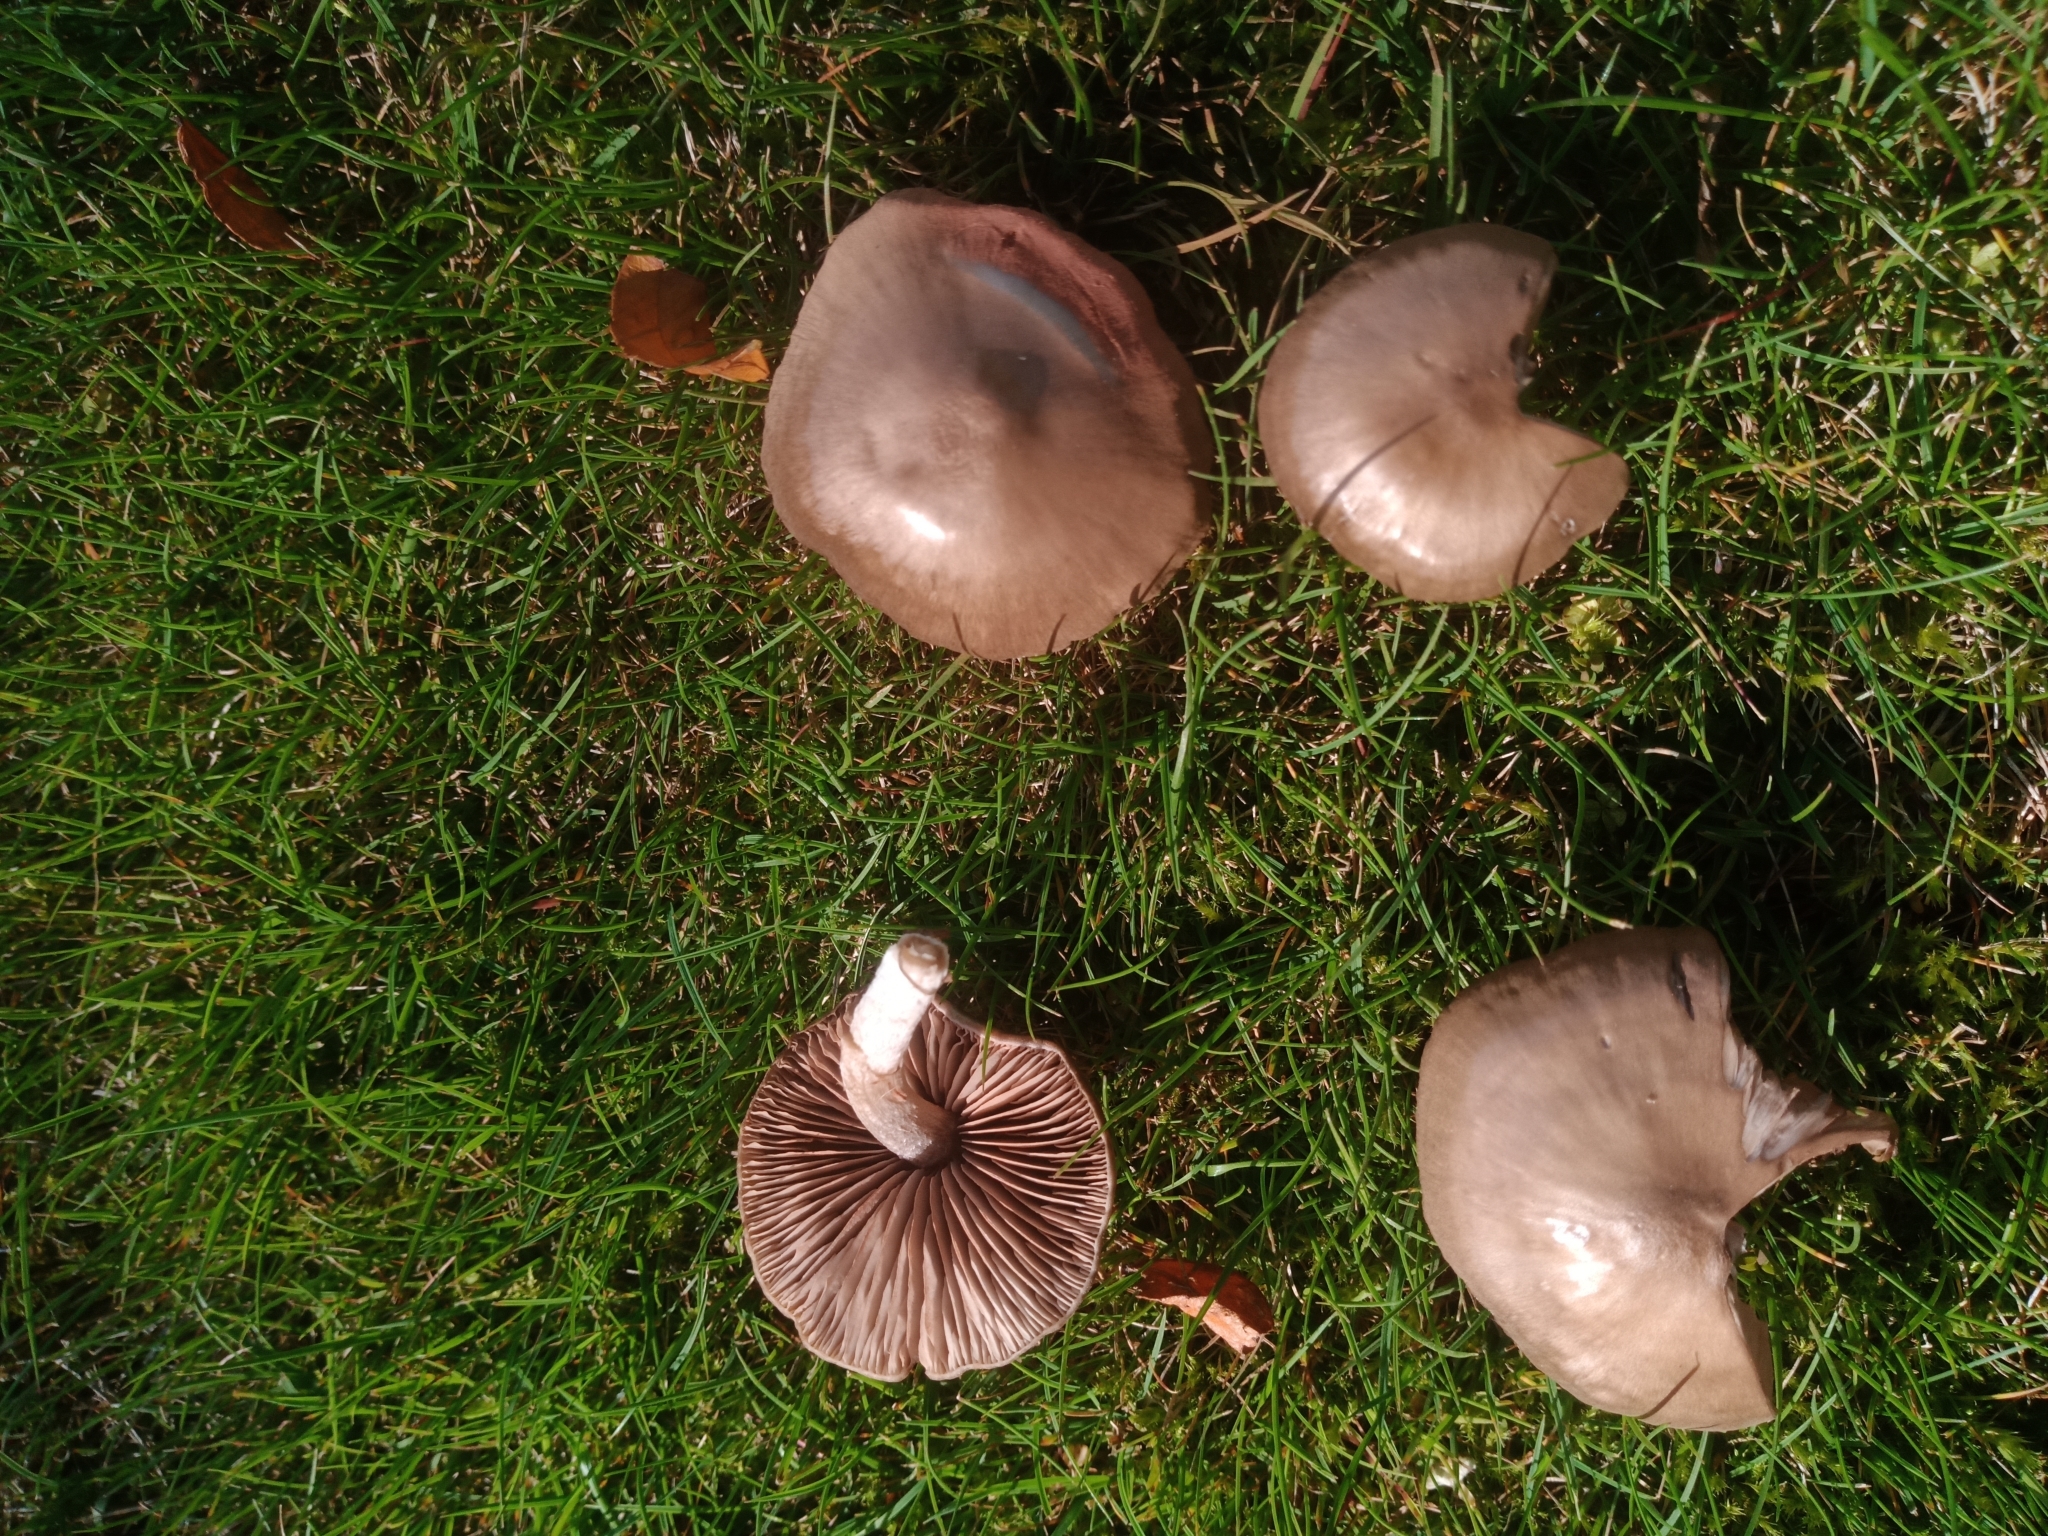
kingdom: Fungi
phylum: Basidiomycota
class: Agaricomycetes
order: Agaricales
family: Entolomataceae
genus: Entoloma
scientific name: Entoloma sericeum
